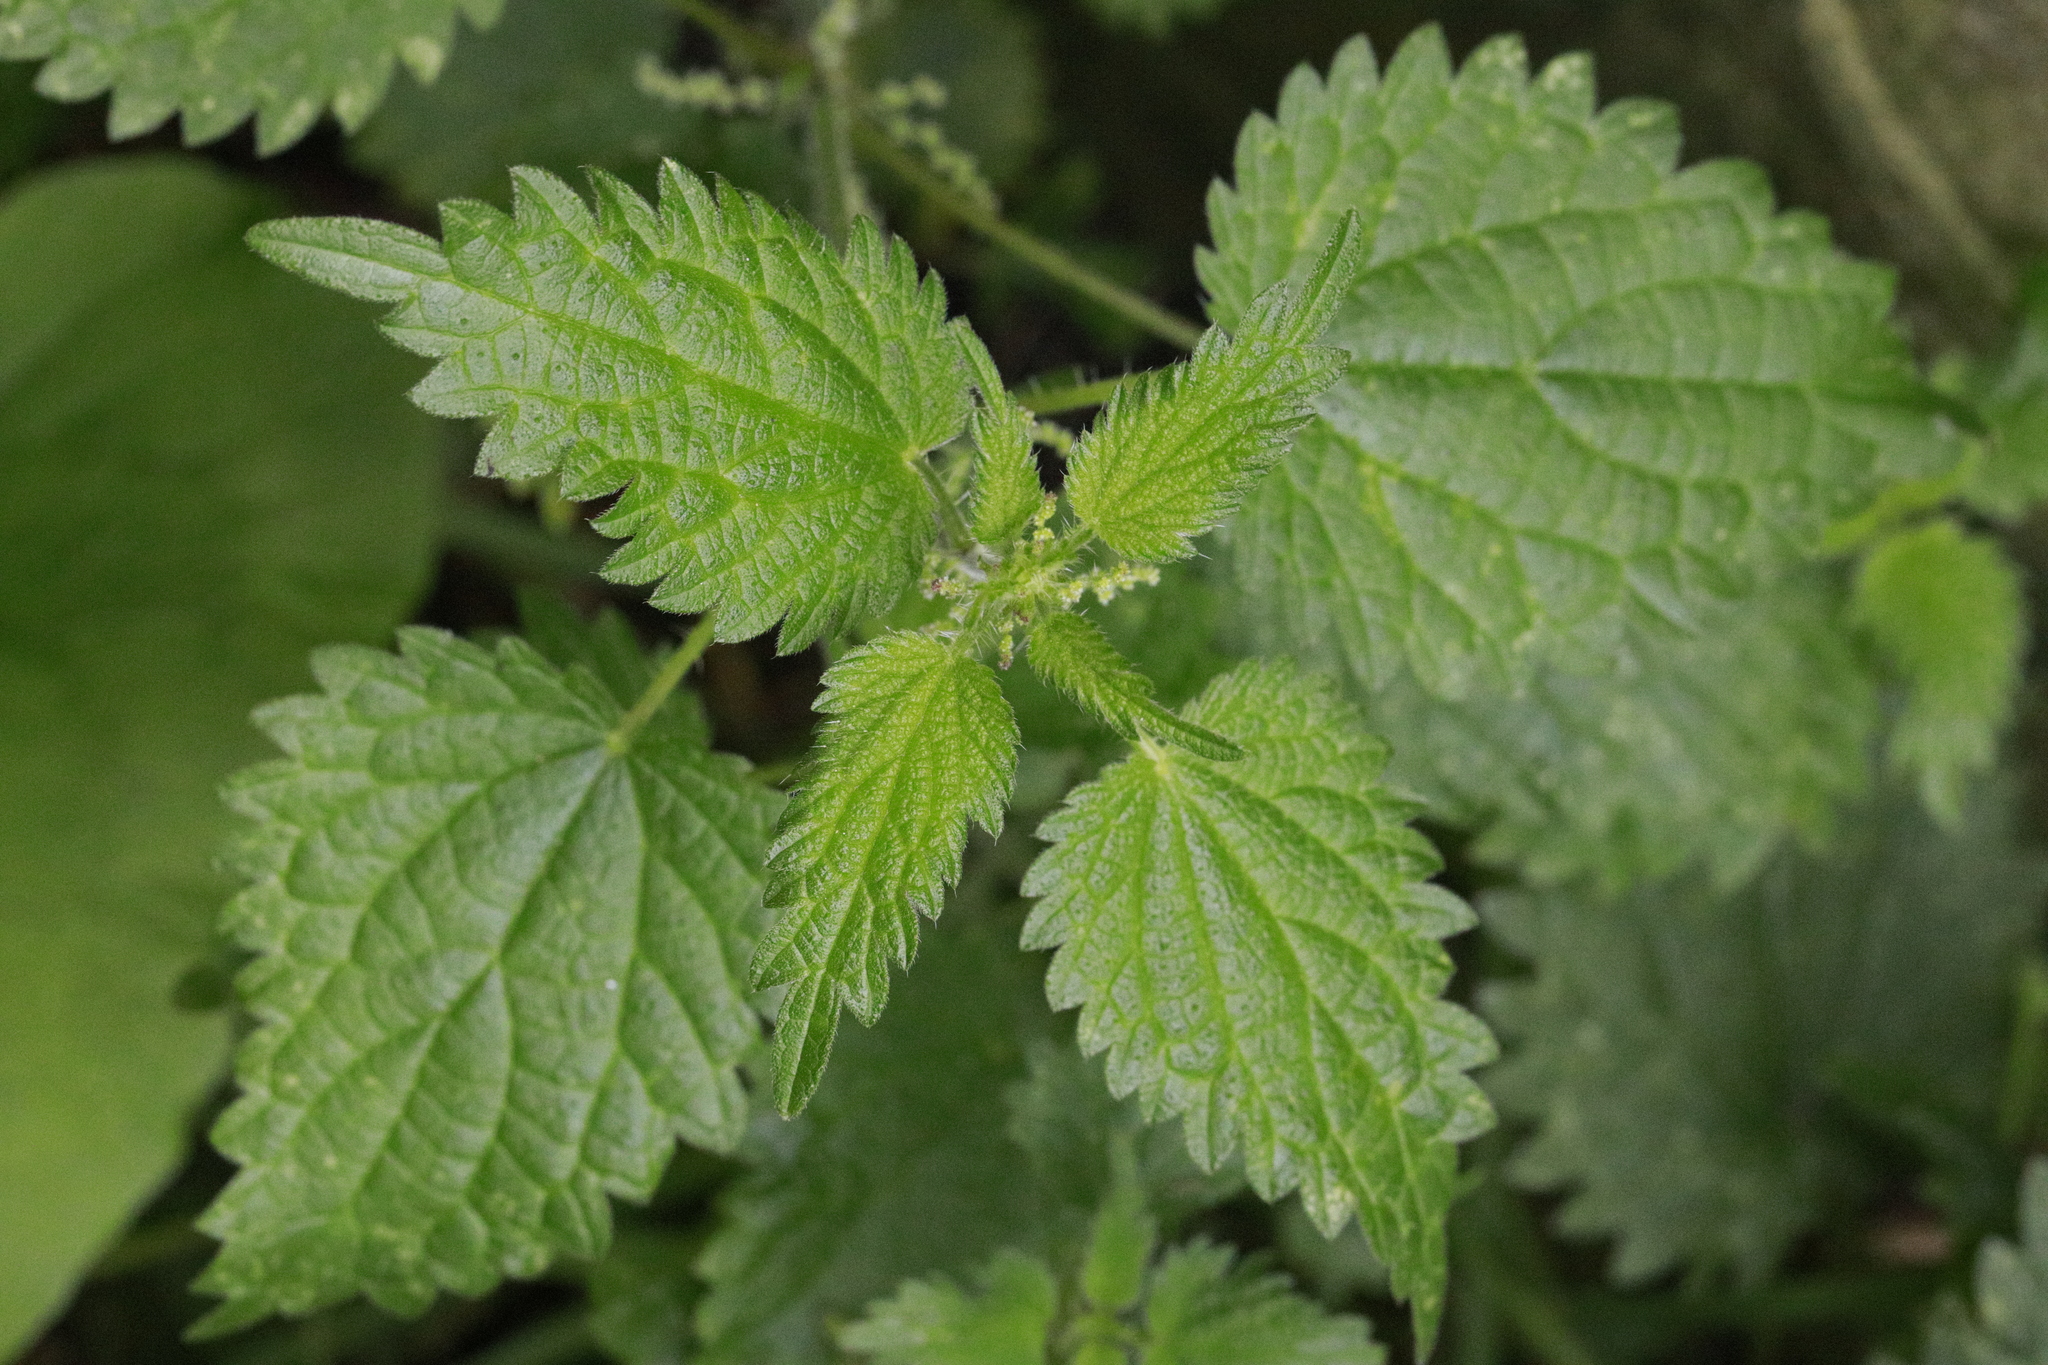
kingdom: Plantae
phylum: Tracheophyta
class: Magnoliopsida
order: Rosales
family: Urticaceae
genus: Urtica
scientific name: Urtica dioica
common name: Common nettle
